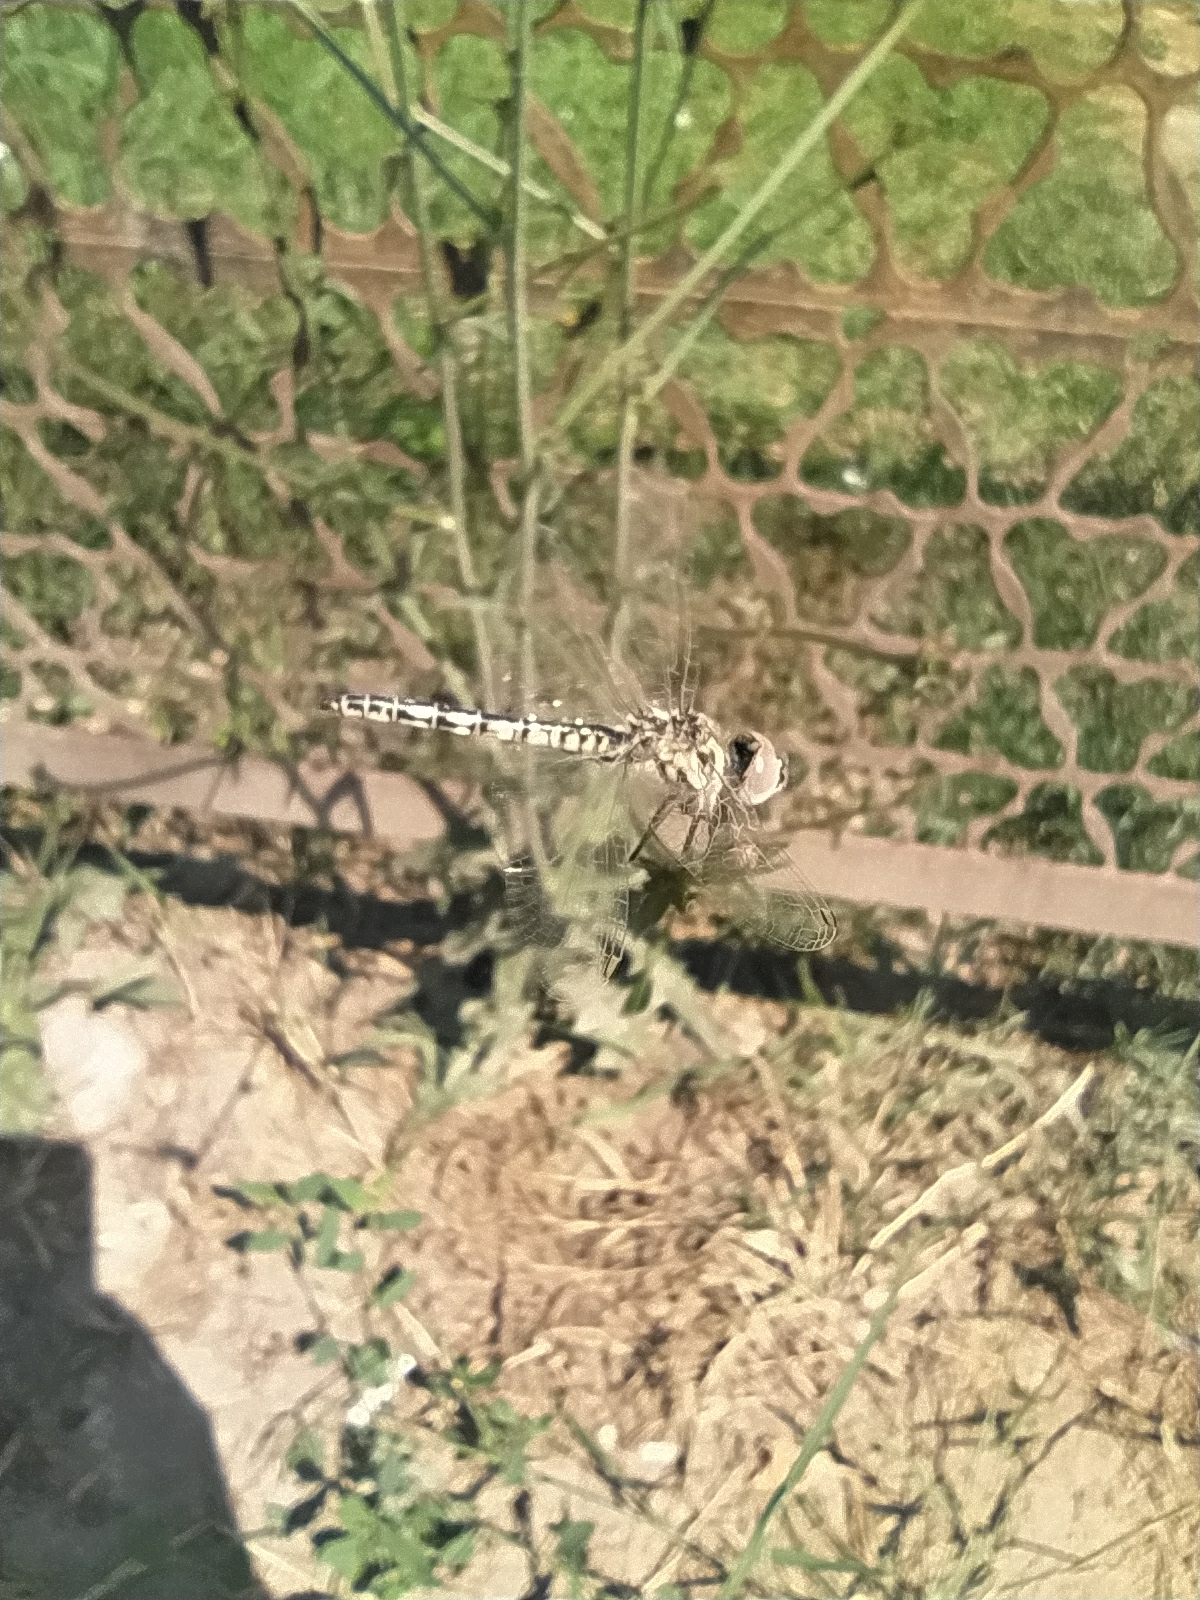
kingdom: Animalia
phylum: Arthropoda
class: Insecta
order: Odonata
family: Libellulidae
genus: Selysiothemis
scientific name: Selysiothemis nigra
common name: Black pennant
